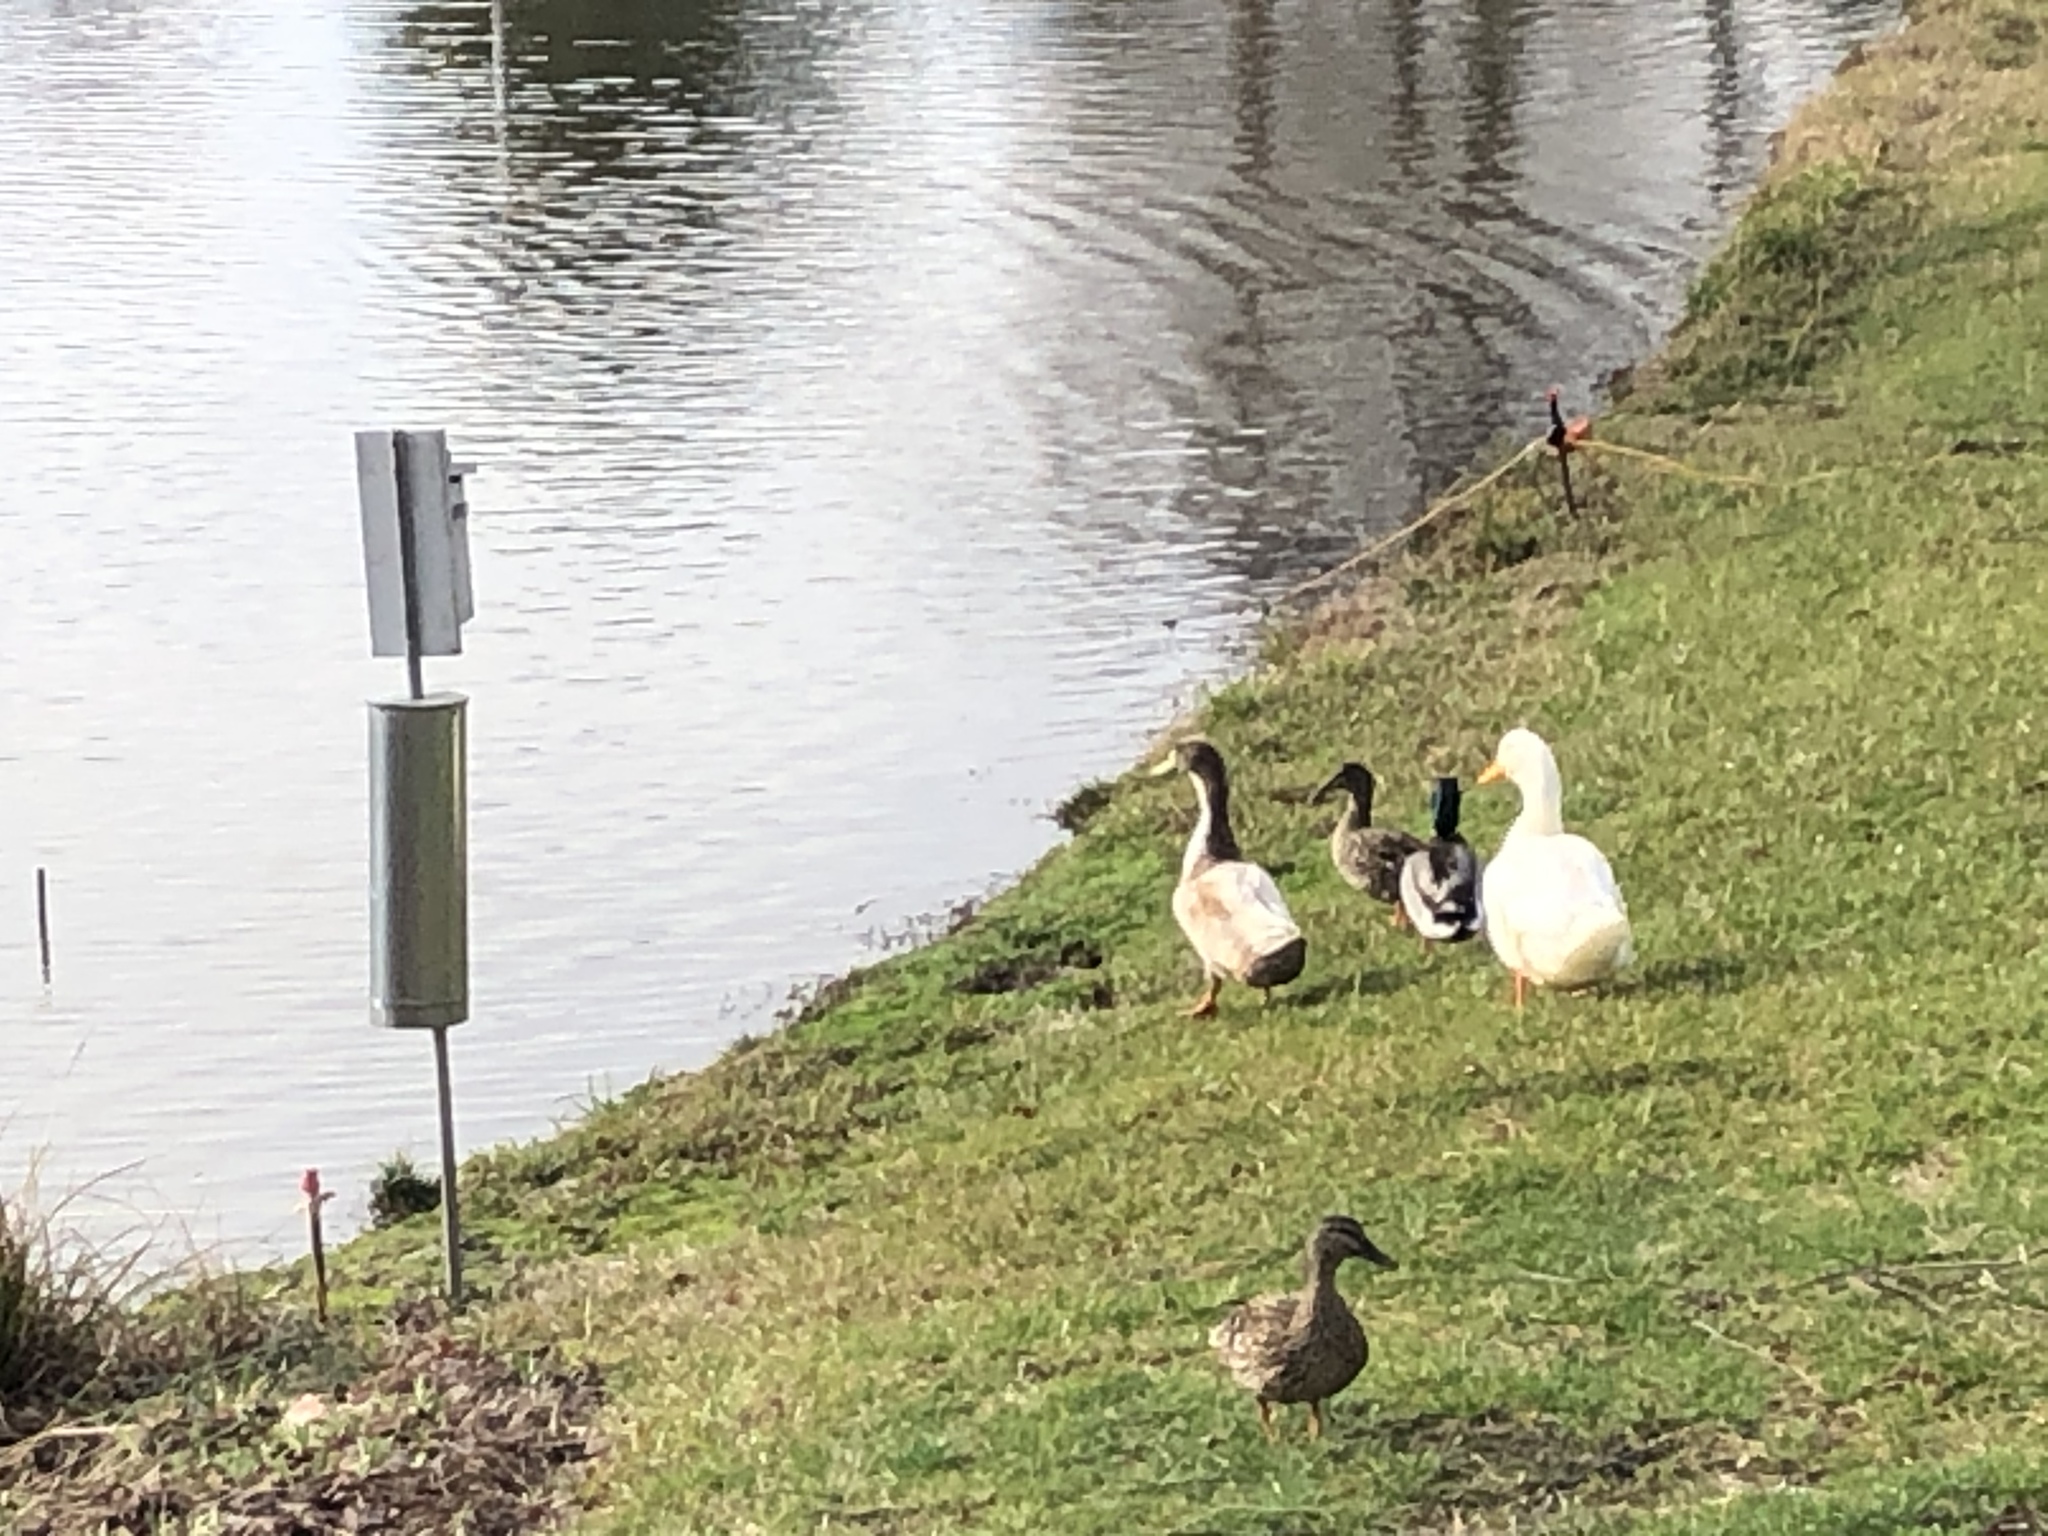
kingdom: Animalia
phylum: Chordata
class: Aves
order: Anseriformes
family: Anatidae
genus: Anas
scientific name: Anas platyrhynchos
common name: Mallard
